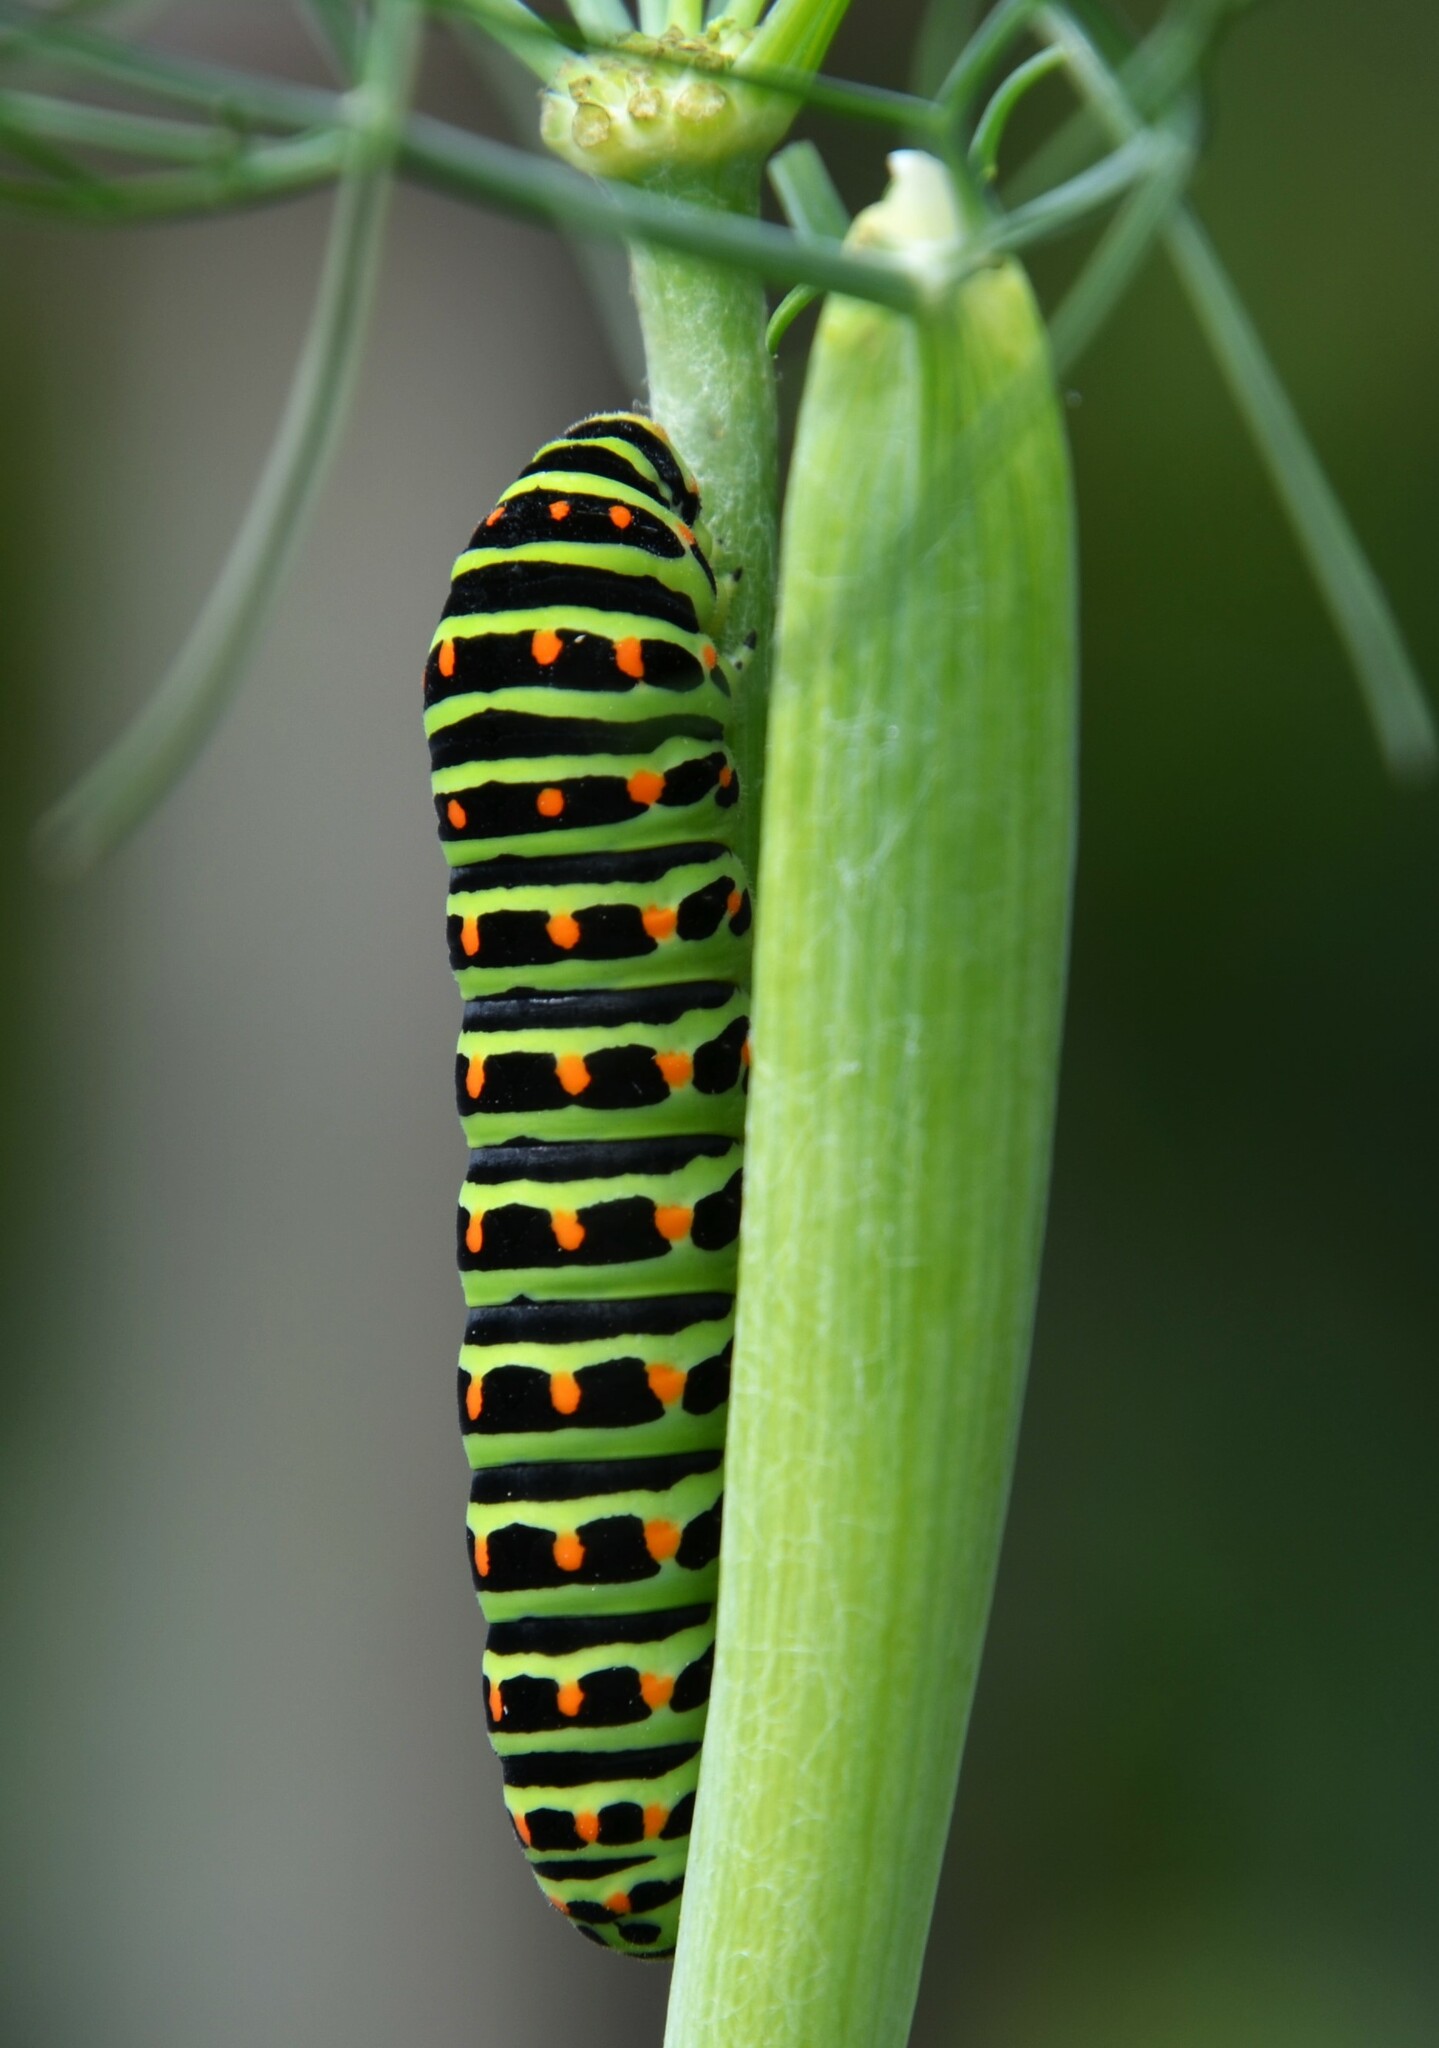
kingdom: Animalia
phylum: Arthropoda
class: Insecta
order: Lepidoptera
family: Papilionidae
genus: Papilio
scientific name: Papilio machaon
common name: Swallowtail
